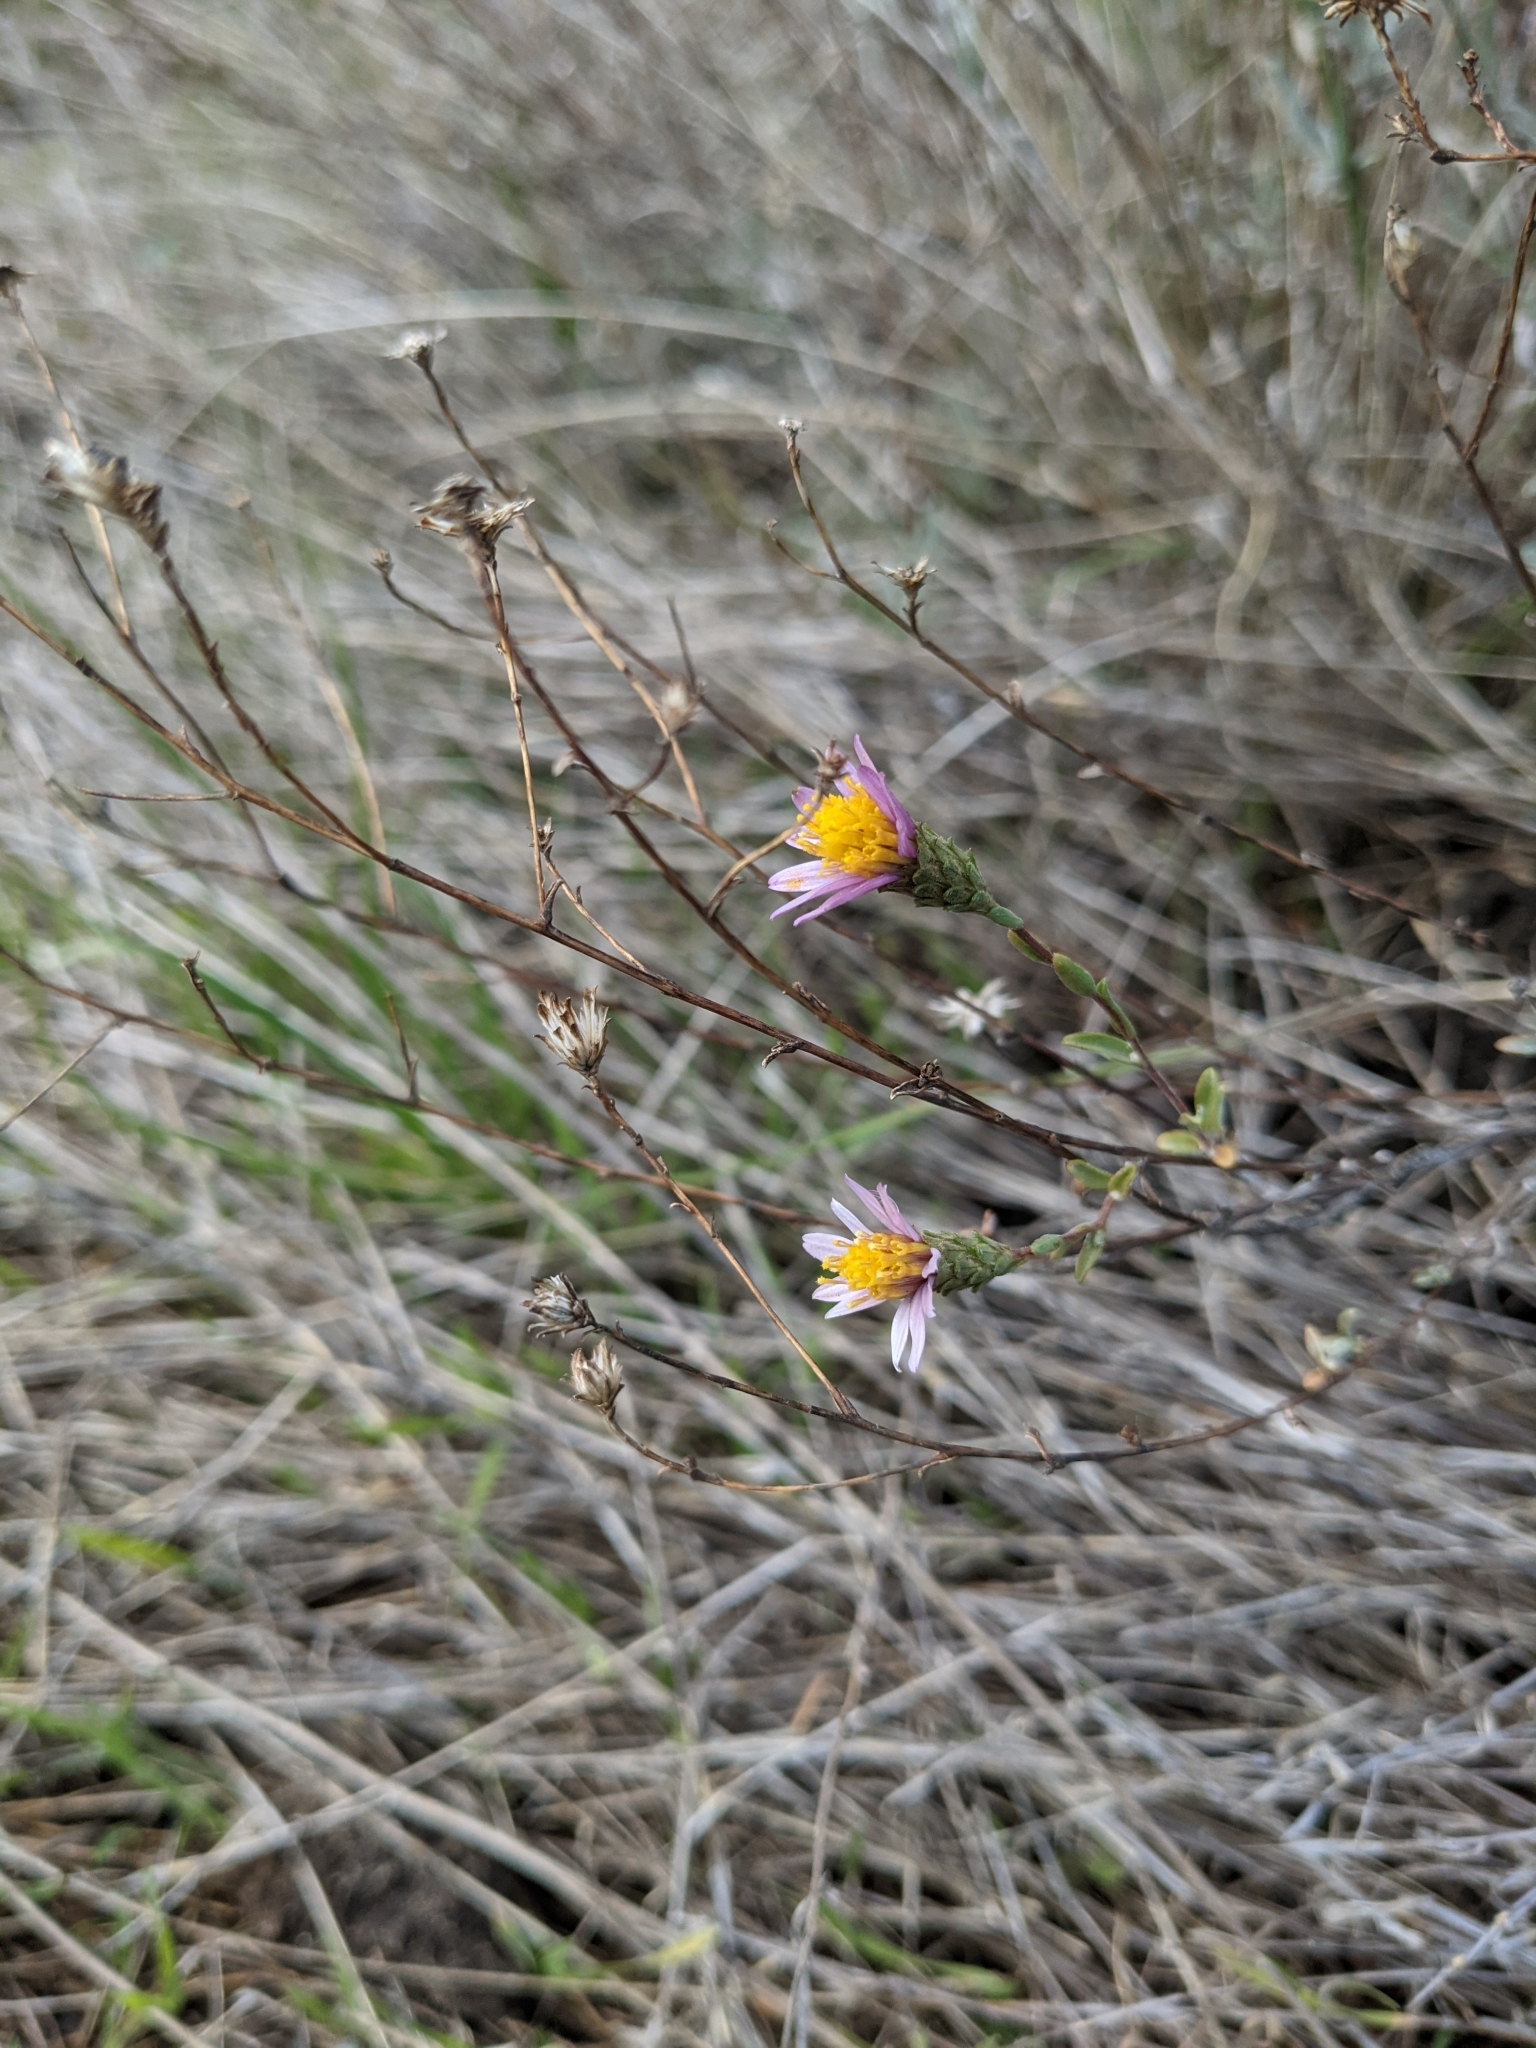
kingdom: Plantae
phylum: Tracheophyta
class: Magnoliopsida
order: Asterales
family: Asteraceae
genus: Corethrogyne
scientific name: Corethrogyne filaginifolia
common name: Sand-aster
